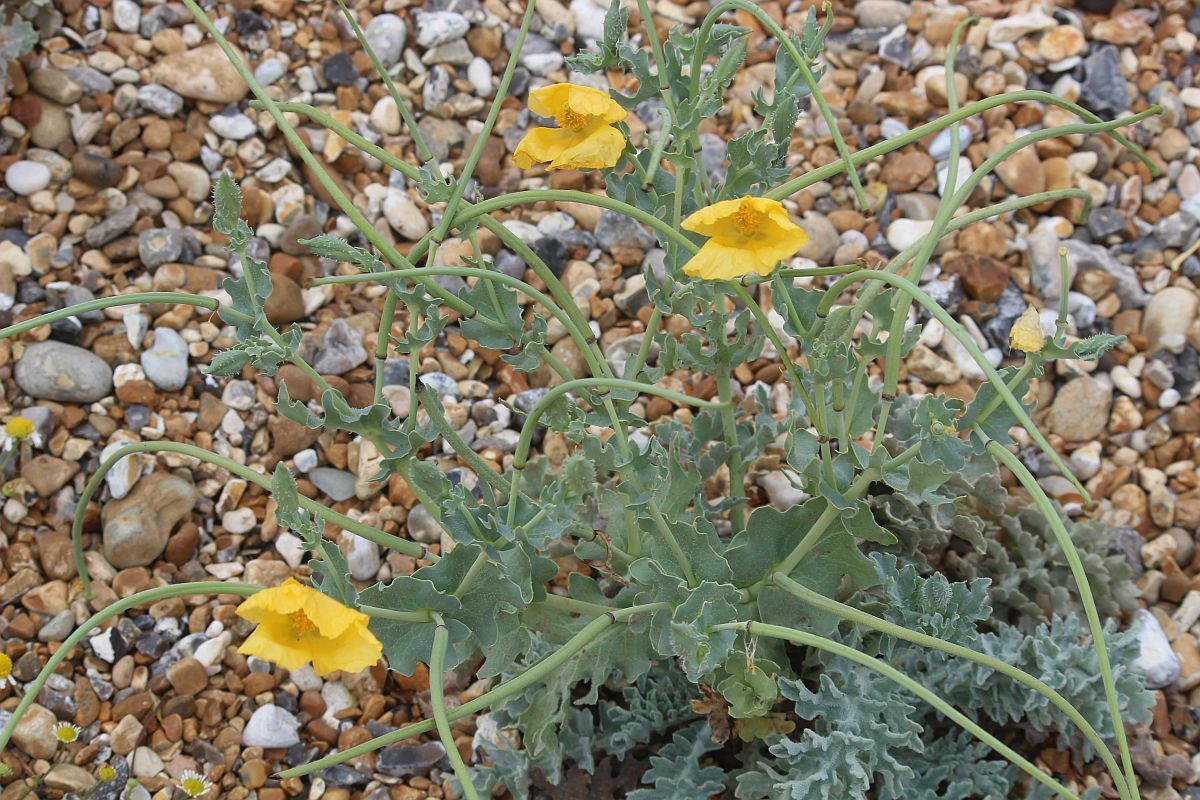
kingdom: Plantae
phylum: Tracheophyta
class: Magnoliopsida
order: Ranunculales
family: Papaveraceae
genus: Glaucium
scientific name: Glaucium flavum
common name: Yellow horned-poppy
